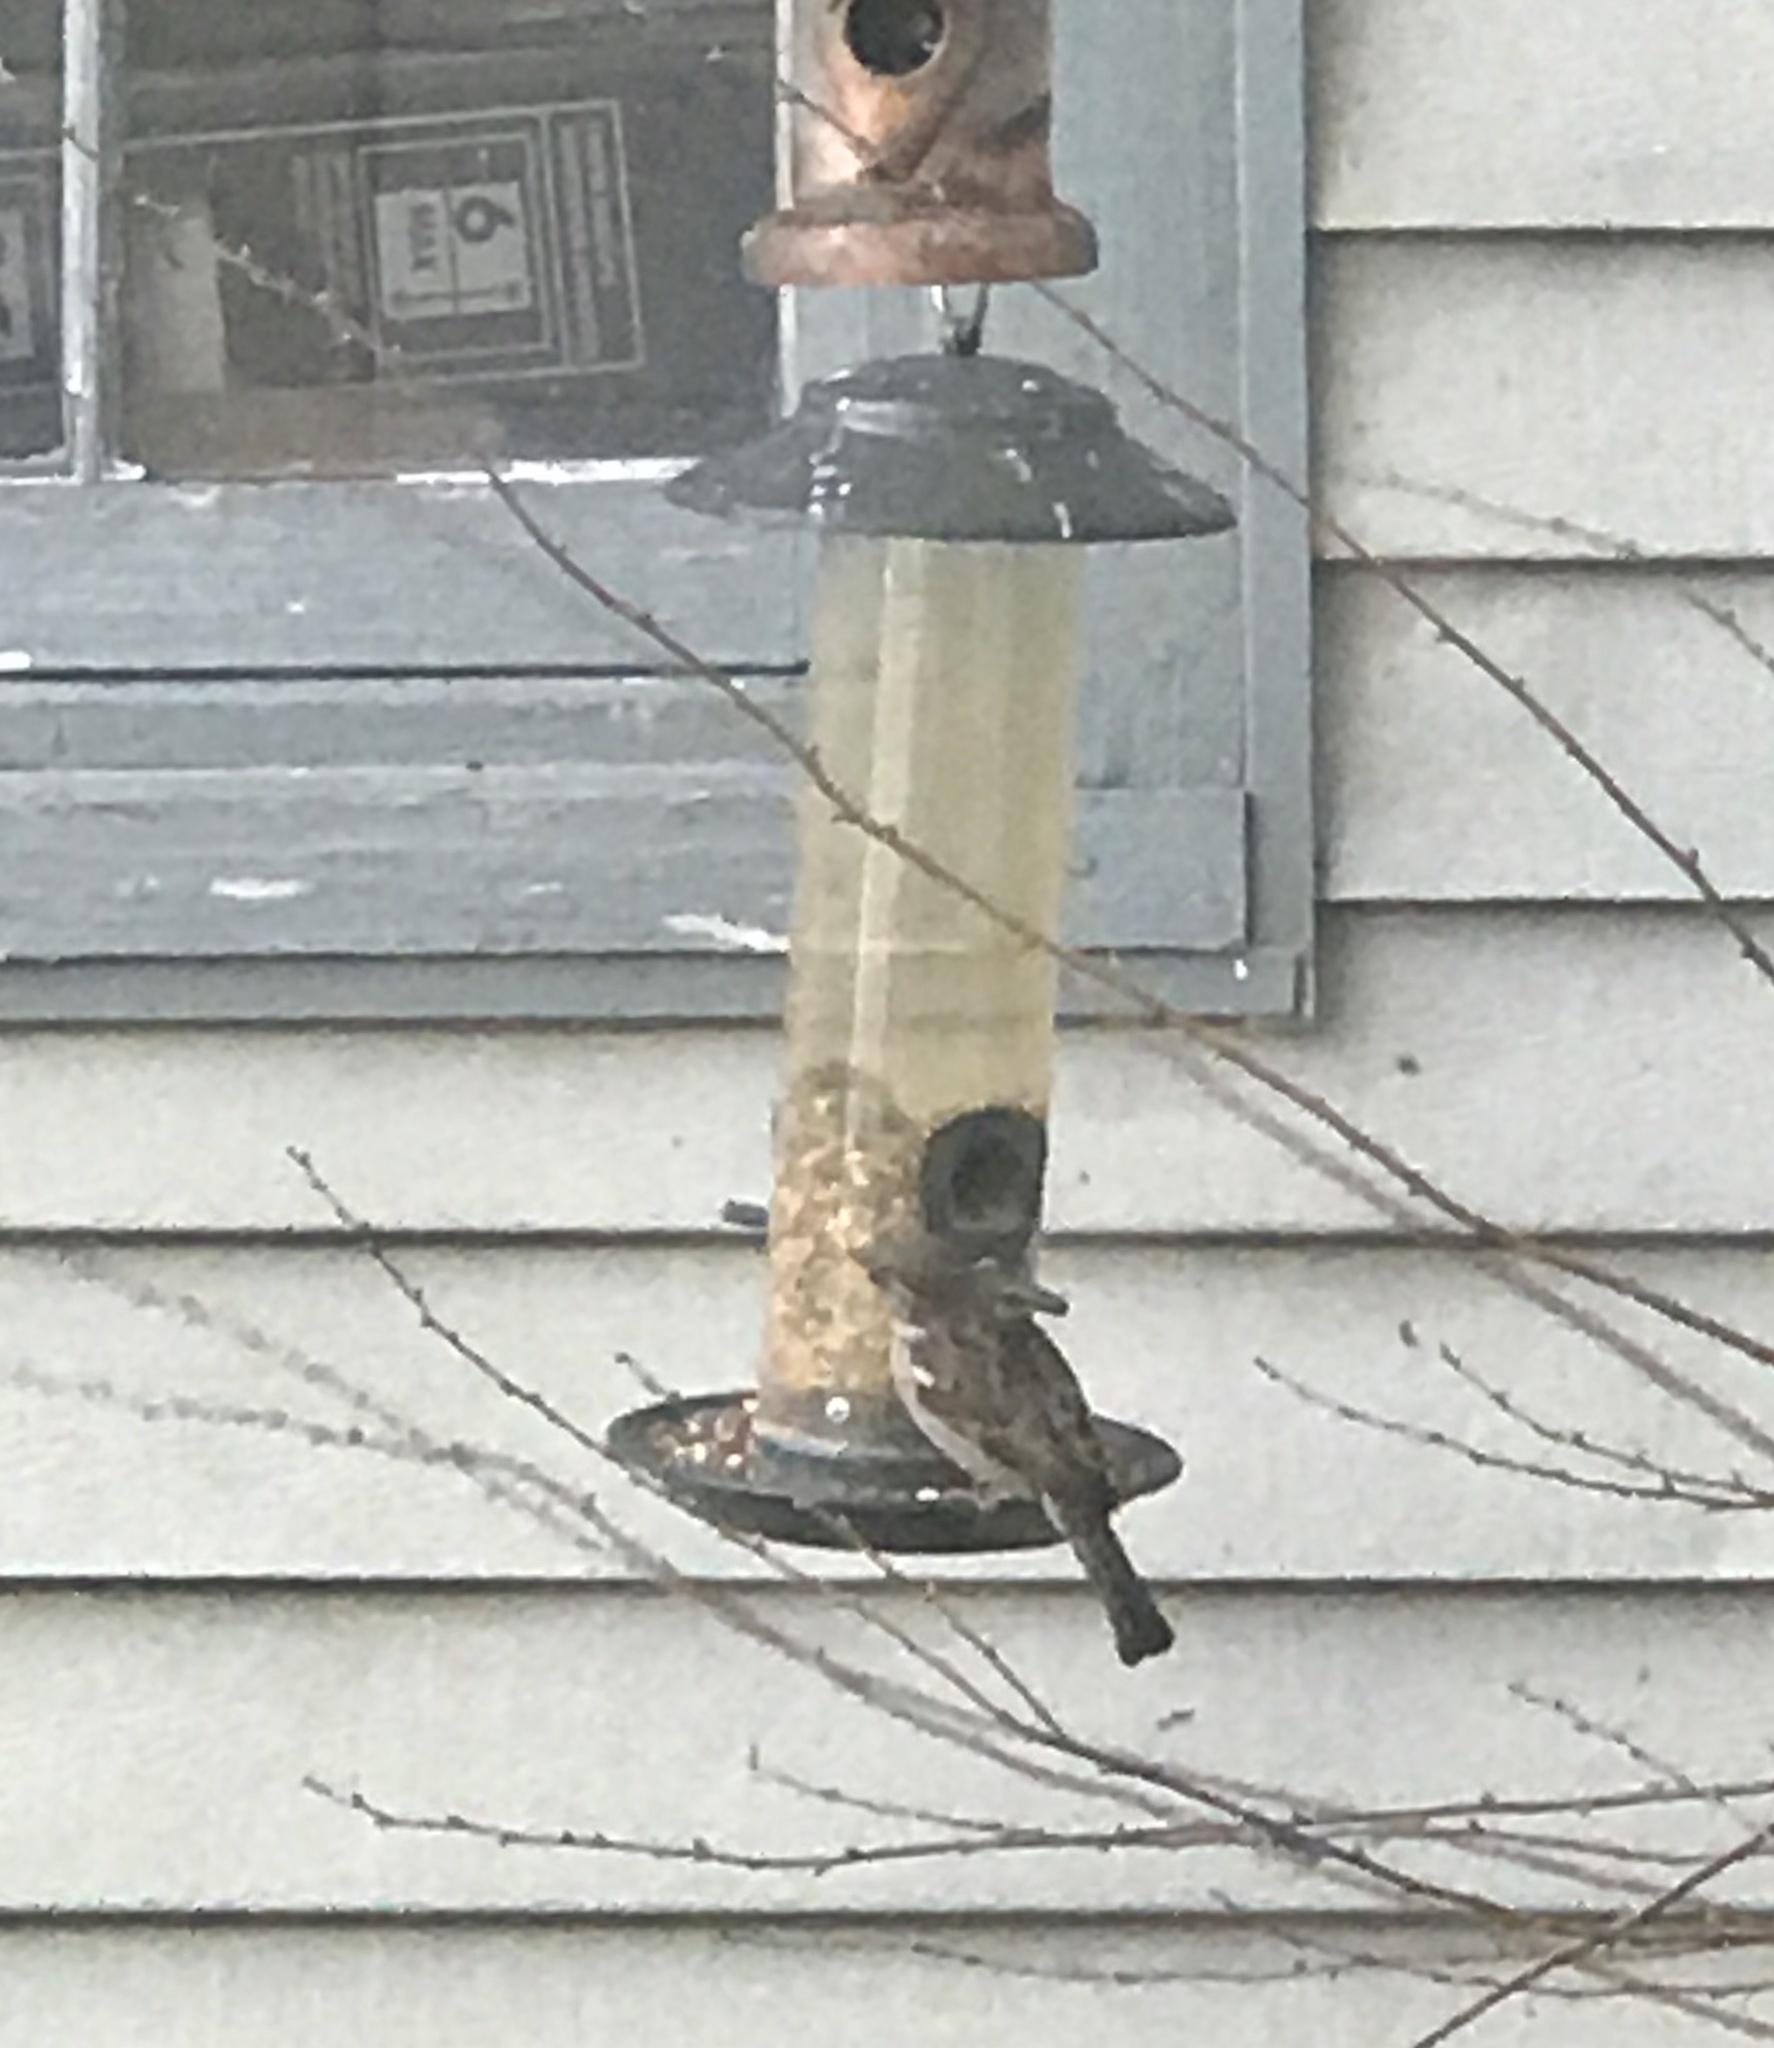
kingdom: Animalia
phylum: Chordata
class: Aves
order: Passeriformes
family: Passeridae
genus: Passer
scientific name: Passer domesticus
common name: House sparrow
